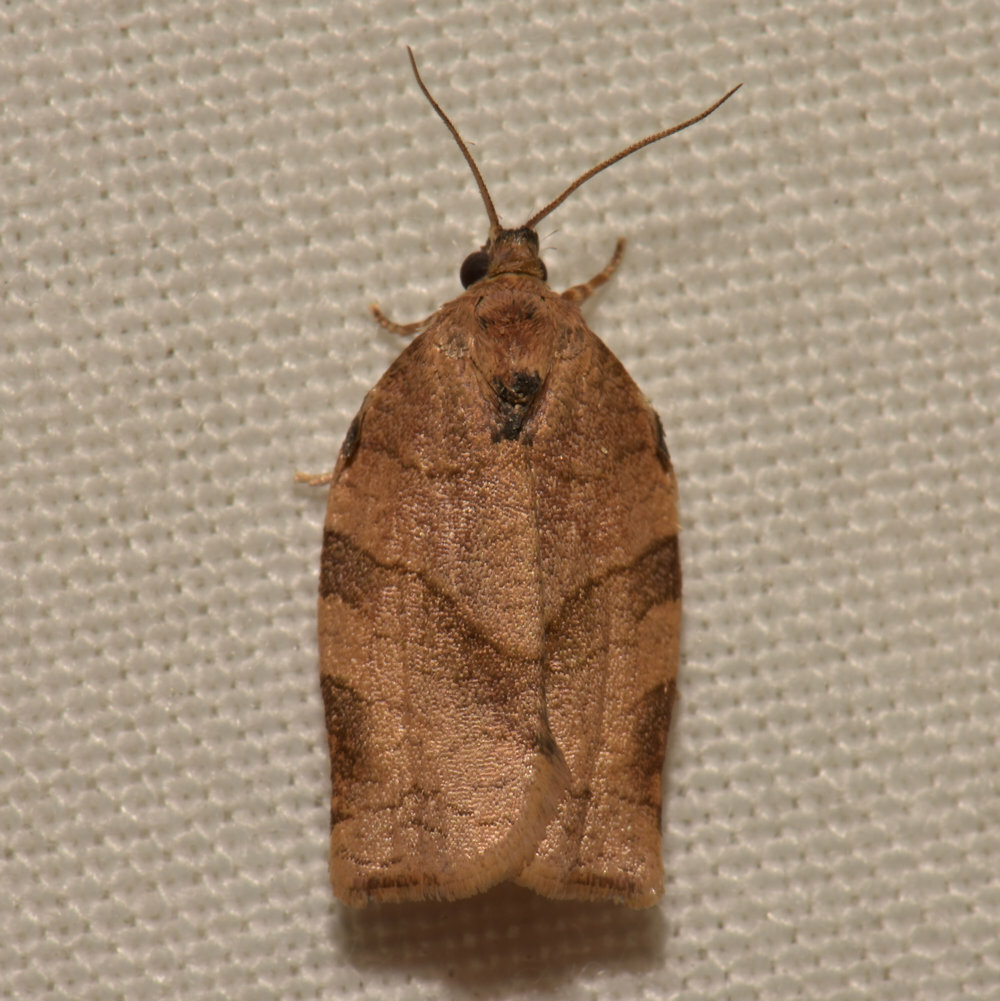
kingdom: Animalia
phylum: Arthropoda
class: Insecta
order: Lepidoptera
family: Tortricidae
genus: Choristoneura
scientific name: Choristoneura rosaceana
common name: Oblique-banded leafroller moth
